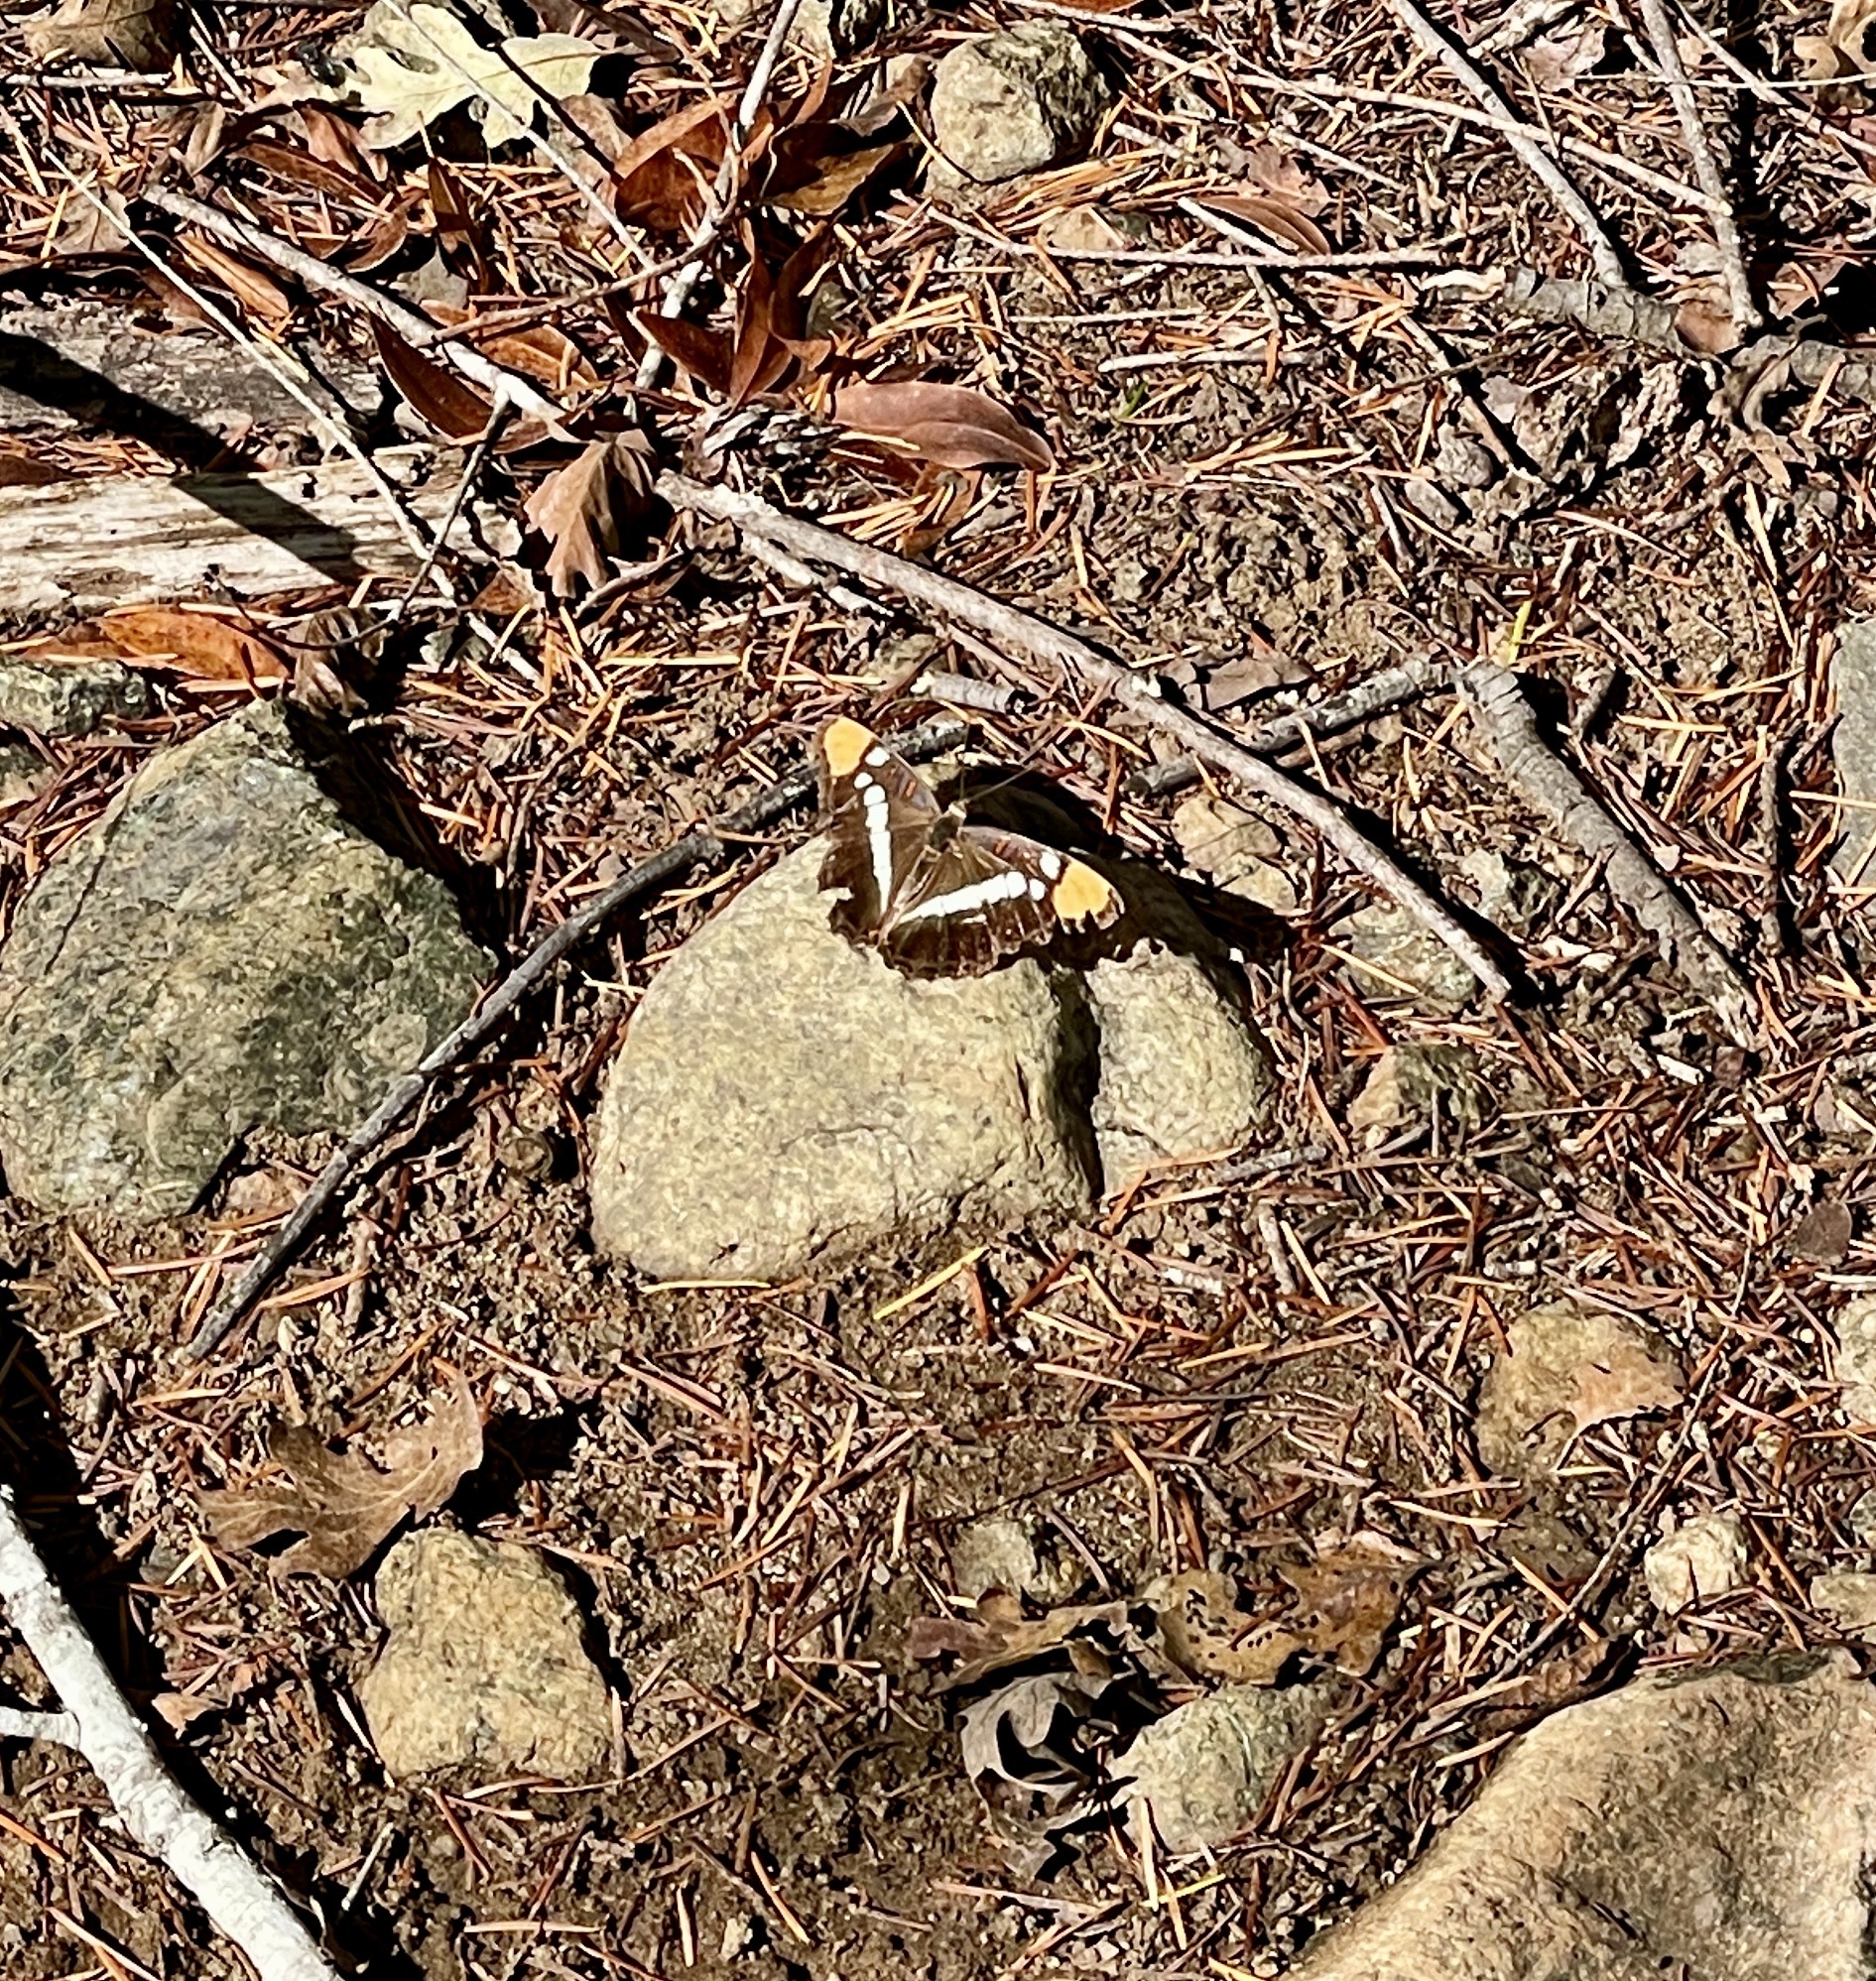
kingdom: Animalia
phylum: Arthropoda
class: Insecta
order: Lepidoptera
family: Nymphalidae
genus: Limenitis
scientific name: Limenitis bredowii
